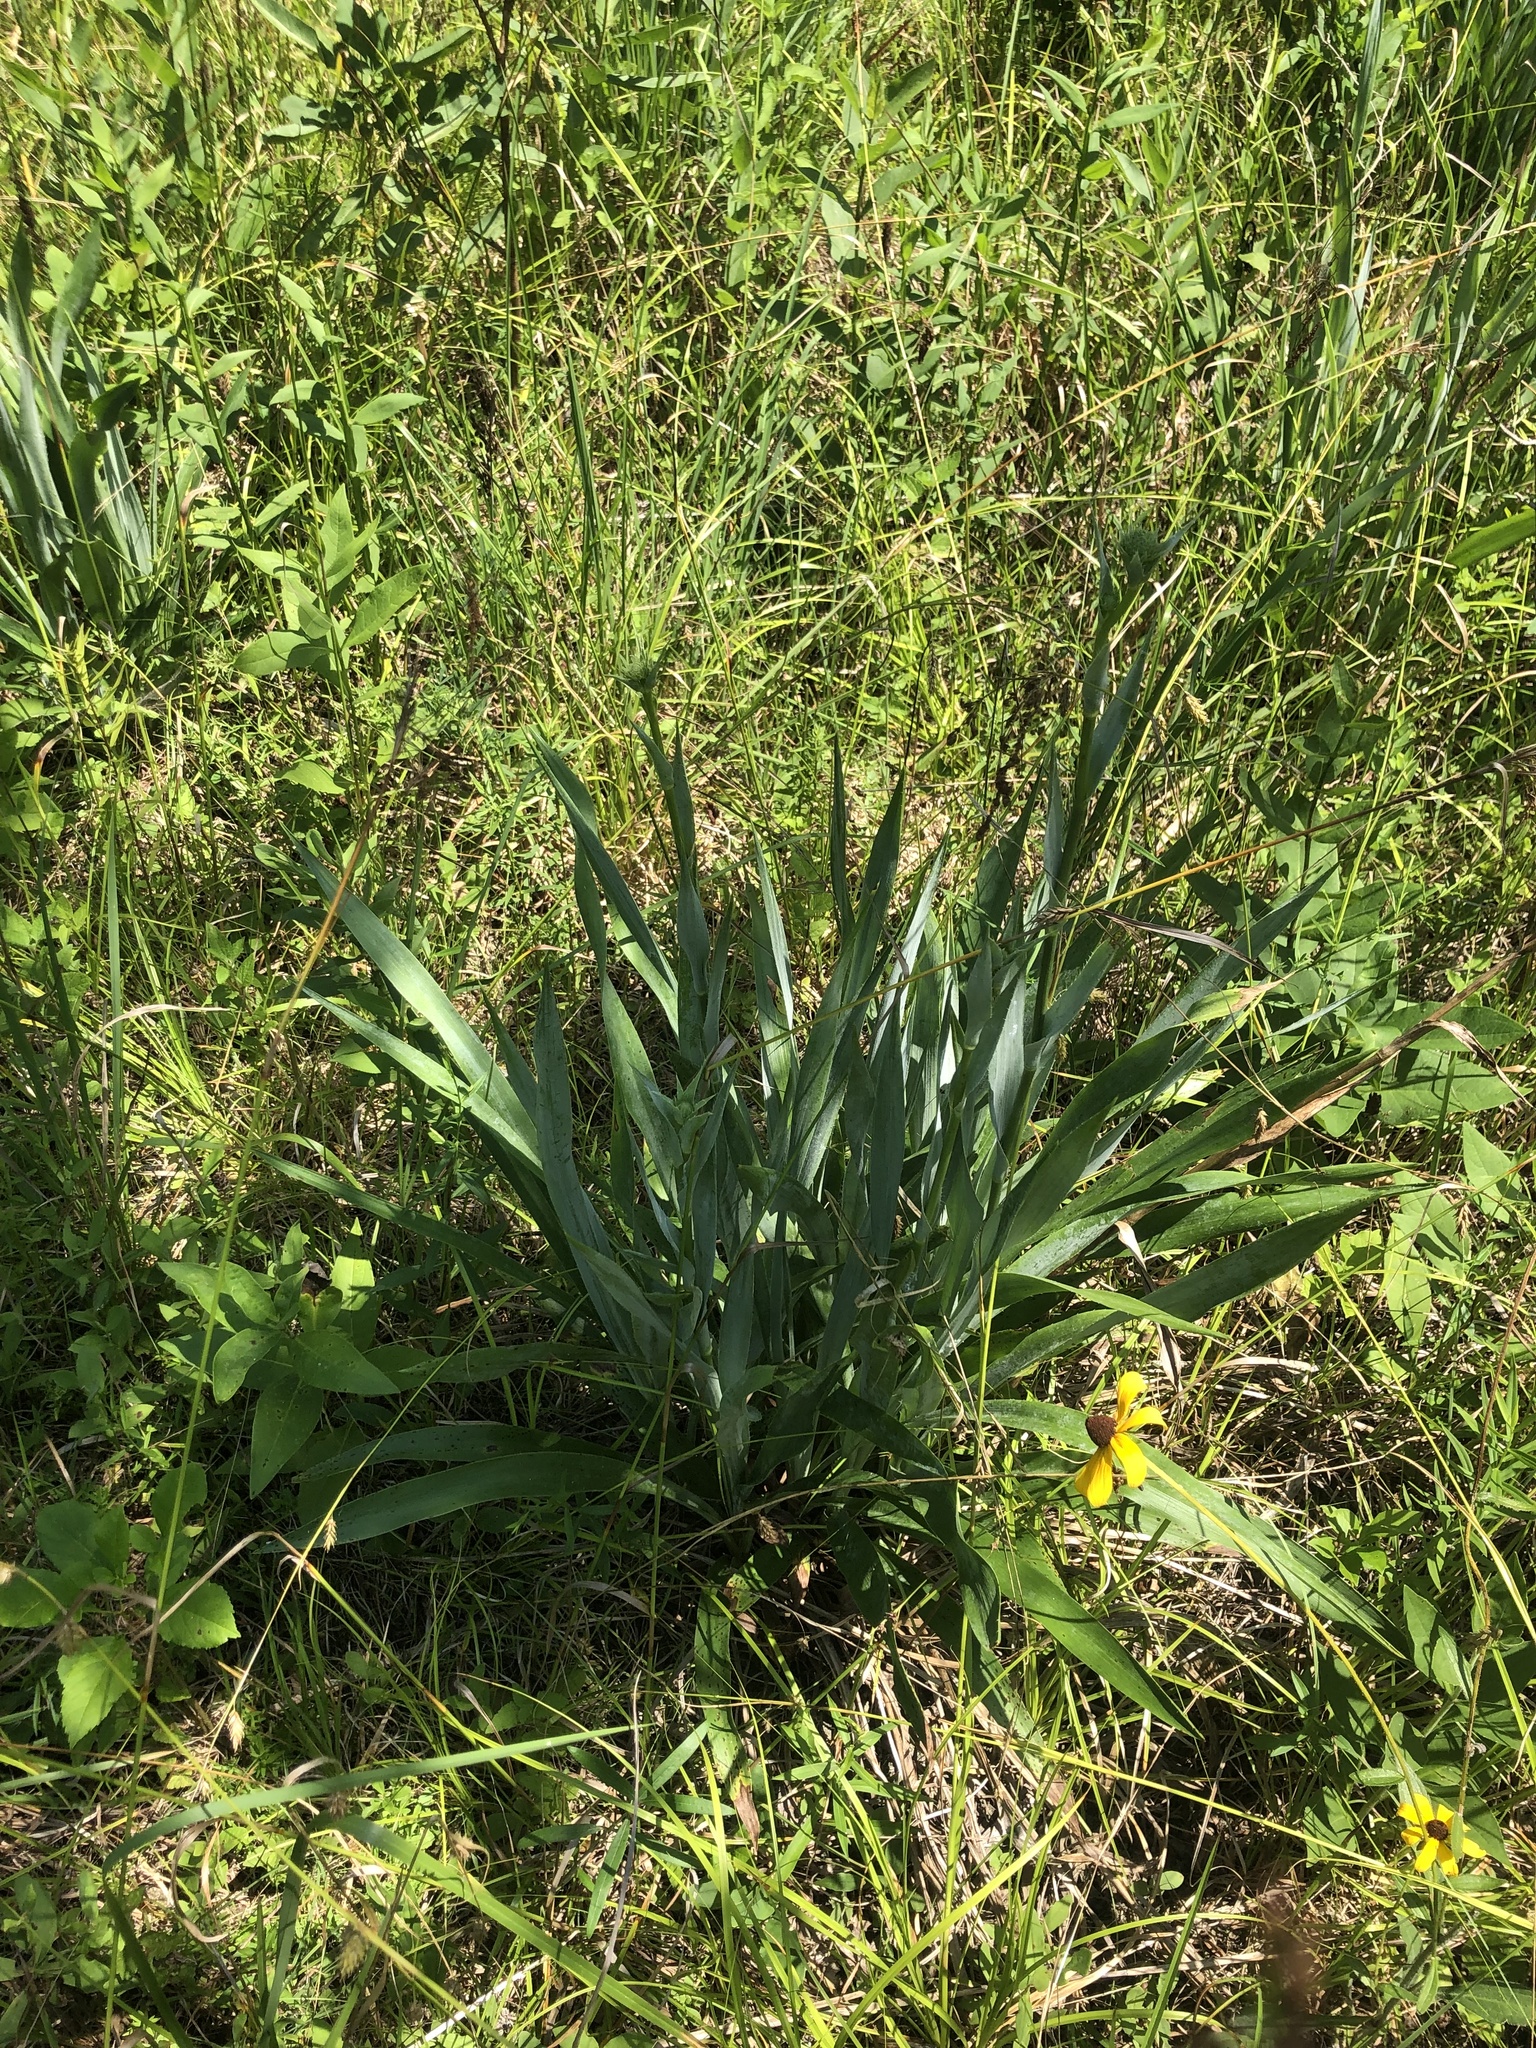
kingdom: Plantae
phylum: Tracheophyta
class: Magnoliopsida
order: Apiales
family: Apiaceae
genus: Eryngium
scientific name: Eryngium yuccifolium
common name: Button eryngo
